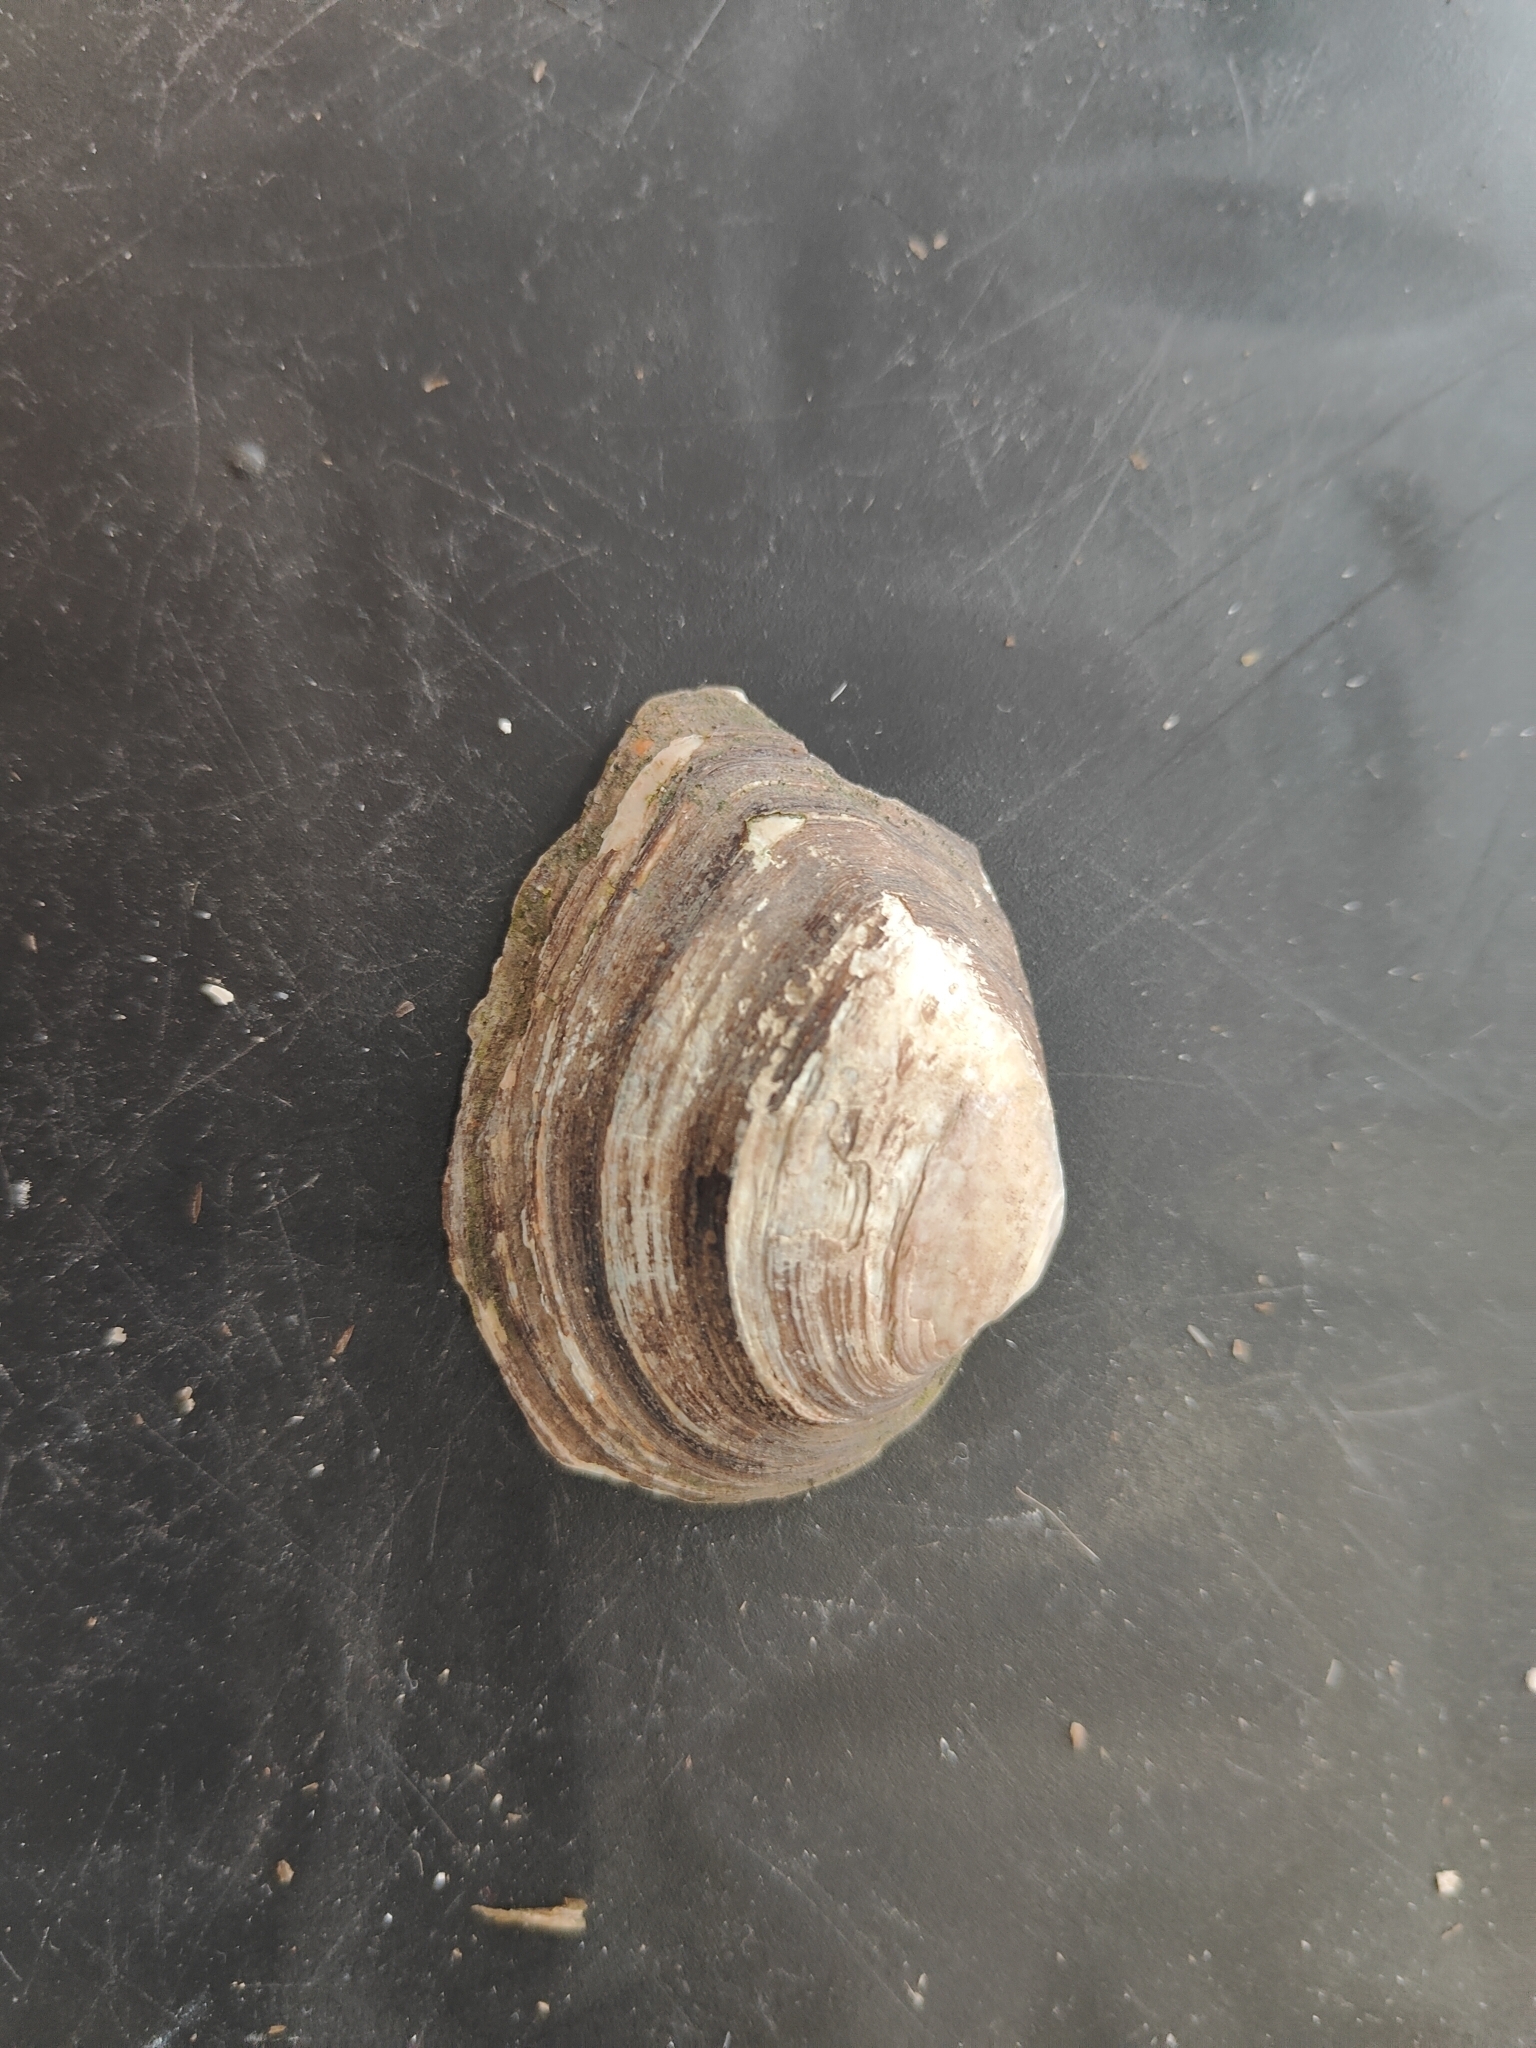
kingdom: Animalia
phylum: Mollusca
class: Bivalvia
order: Unionida
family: Unionidae
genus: Fusconaia
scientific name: Fusconaia flava
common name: Wabash pigtoe
